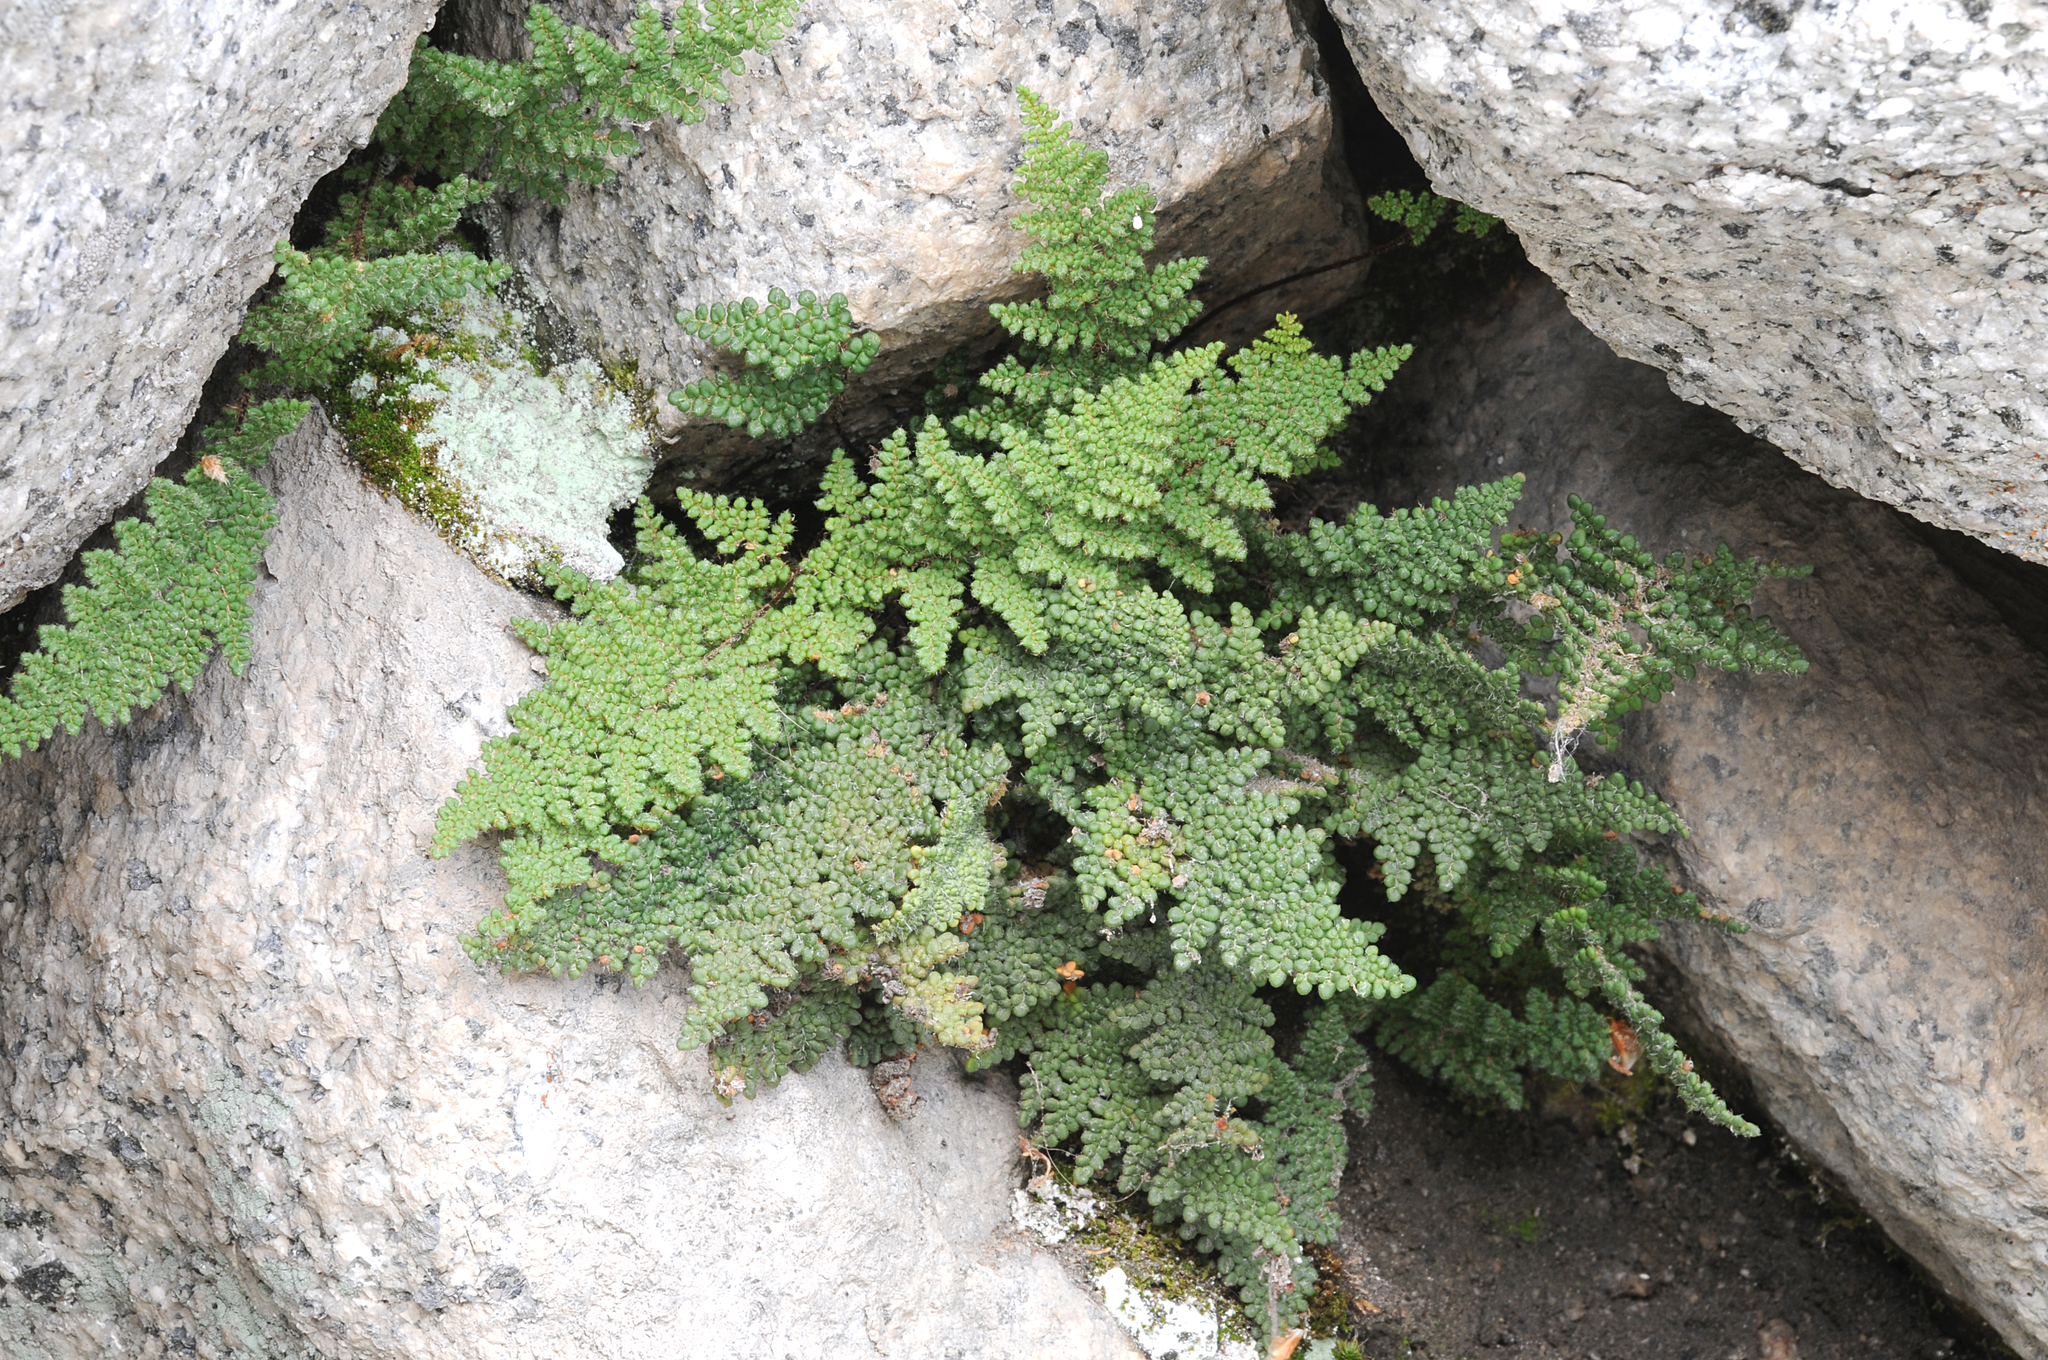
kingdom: Plantae
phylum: Tracheophyta
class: Polypodiopsida
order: Polypodiales
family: Pteridaceae
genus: Myriopteris
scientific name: Myriopteris intertexta
